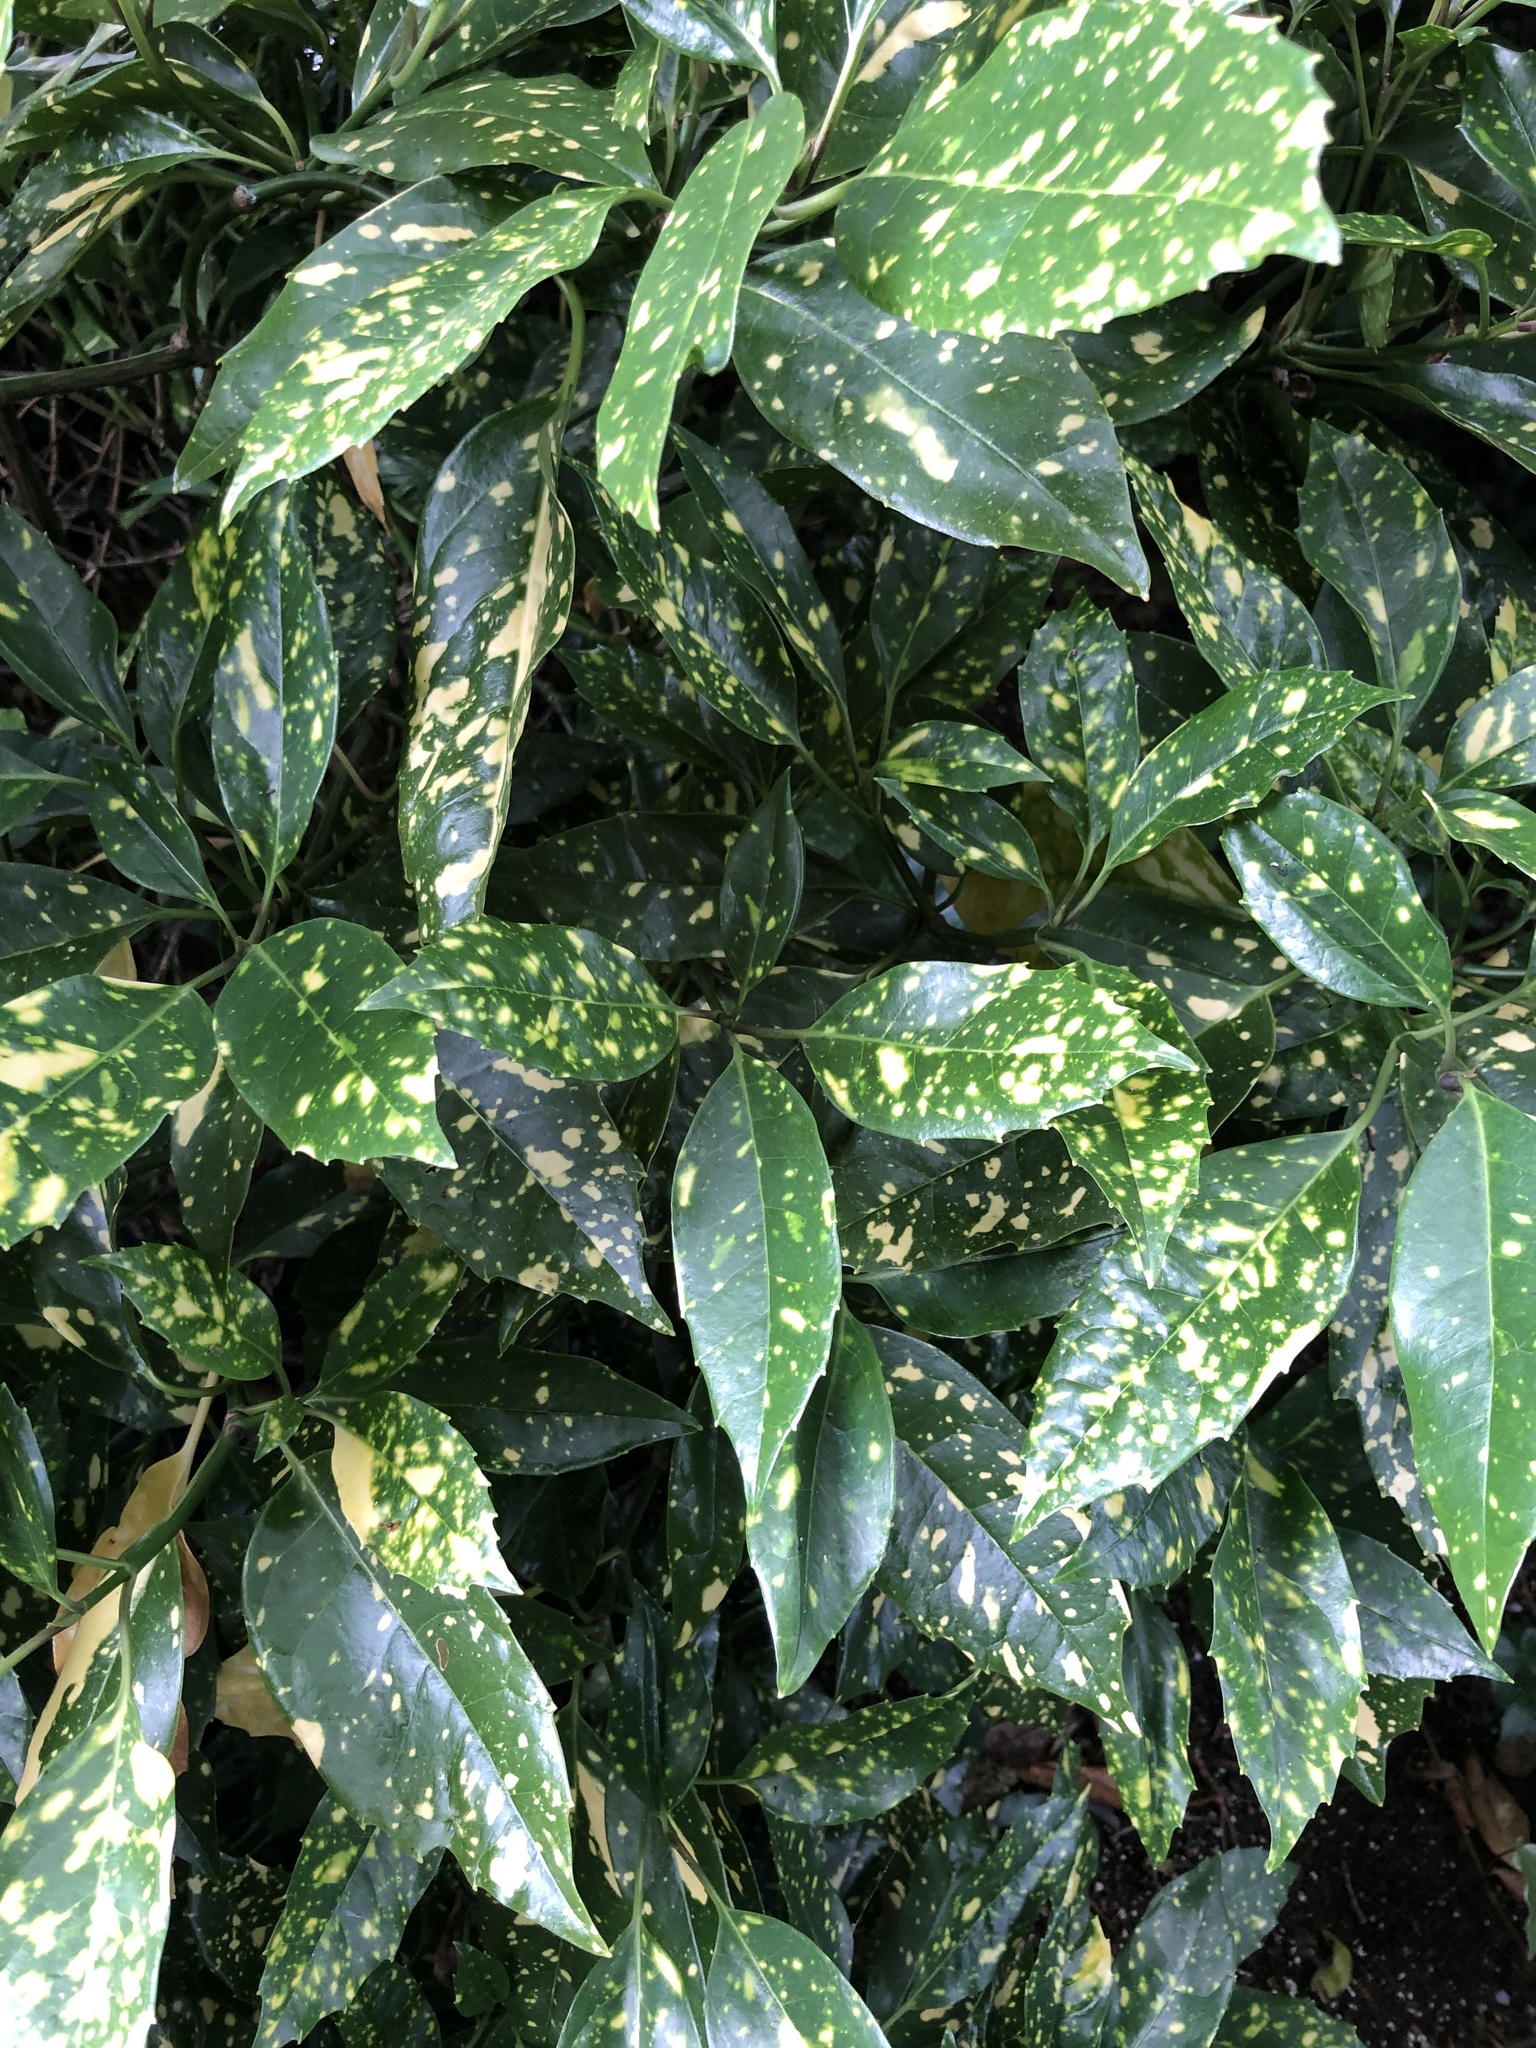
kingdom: Plantae
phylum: Tracheophyta
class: Magnoliopsida
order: Garryales
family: Garryaceae
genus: Aucuba
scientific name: Aucuba japonica
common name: Spotted-laurel
